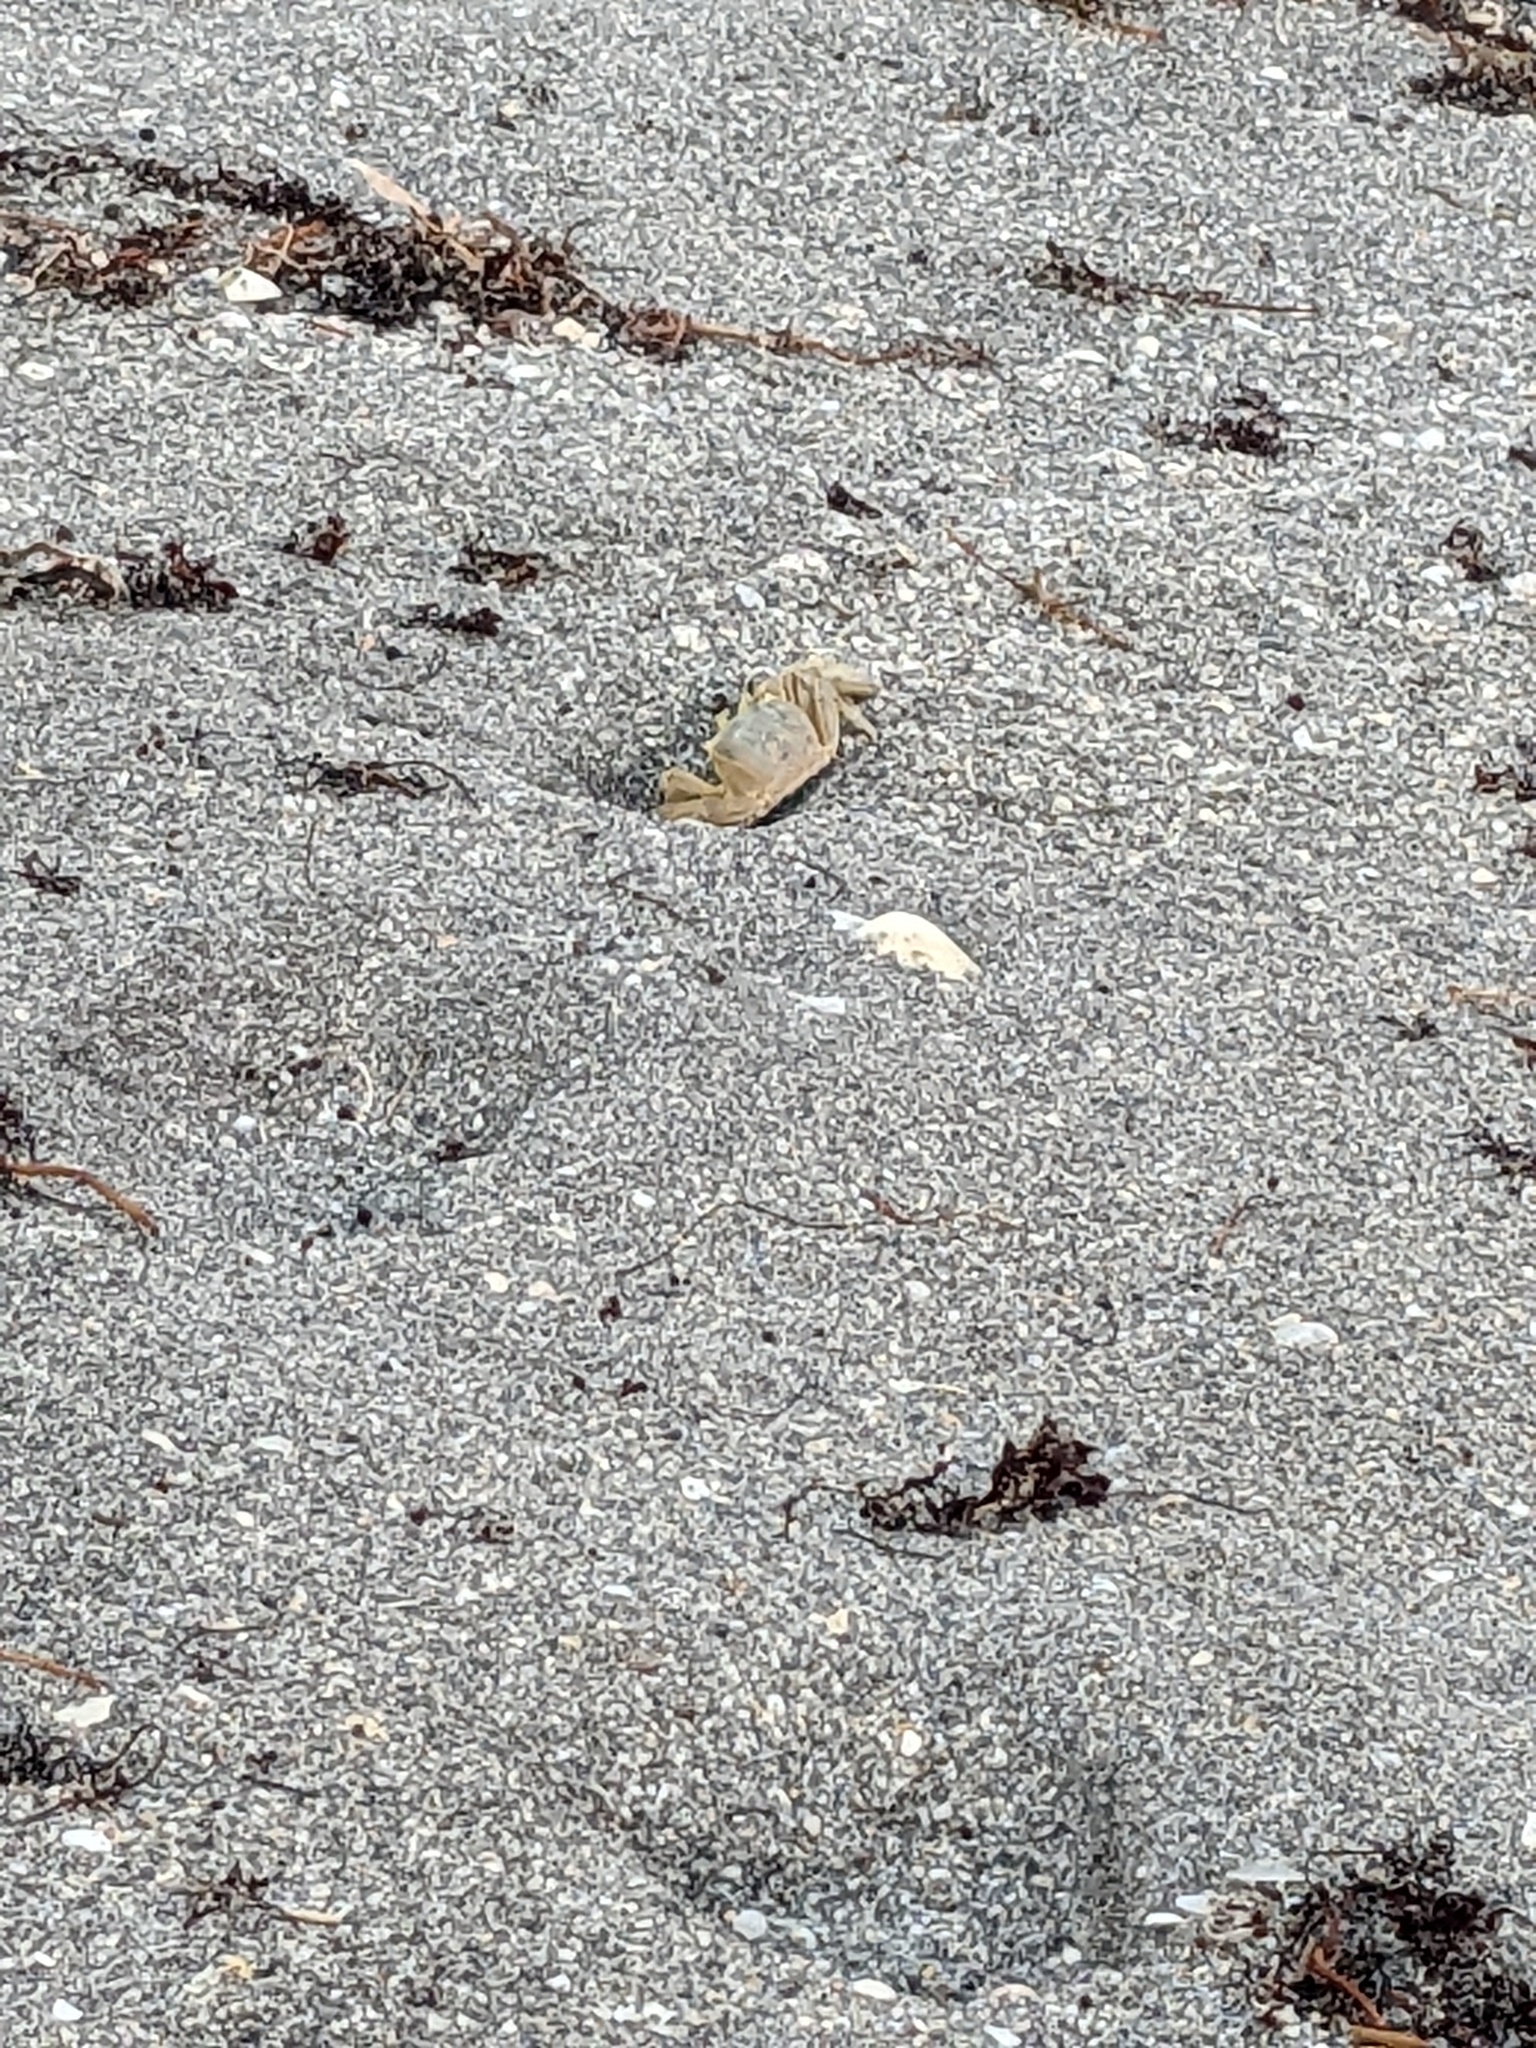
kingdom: Animalia
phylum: Arthropoda
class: Malacostraca
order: Decapoda
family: Ocypodidae
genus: Ocypode
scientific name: Ocypode quadrata
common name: Ghost crab
